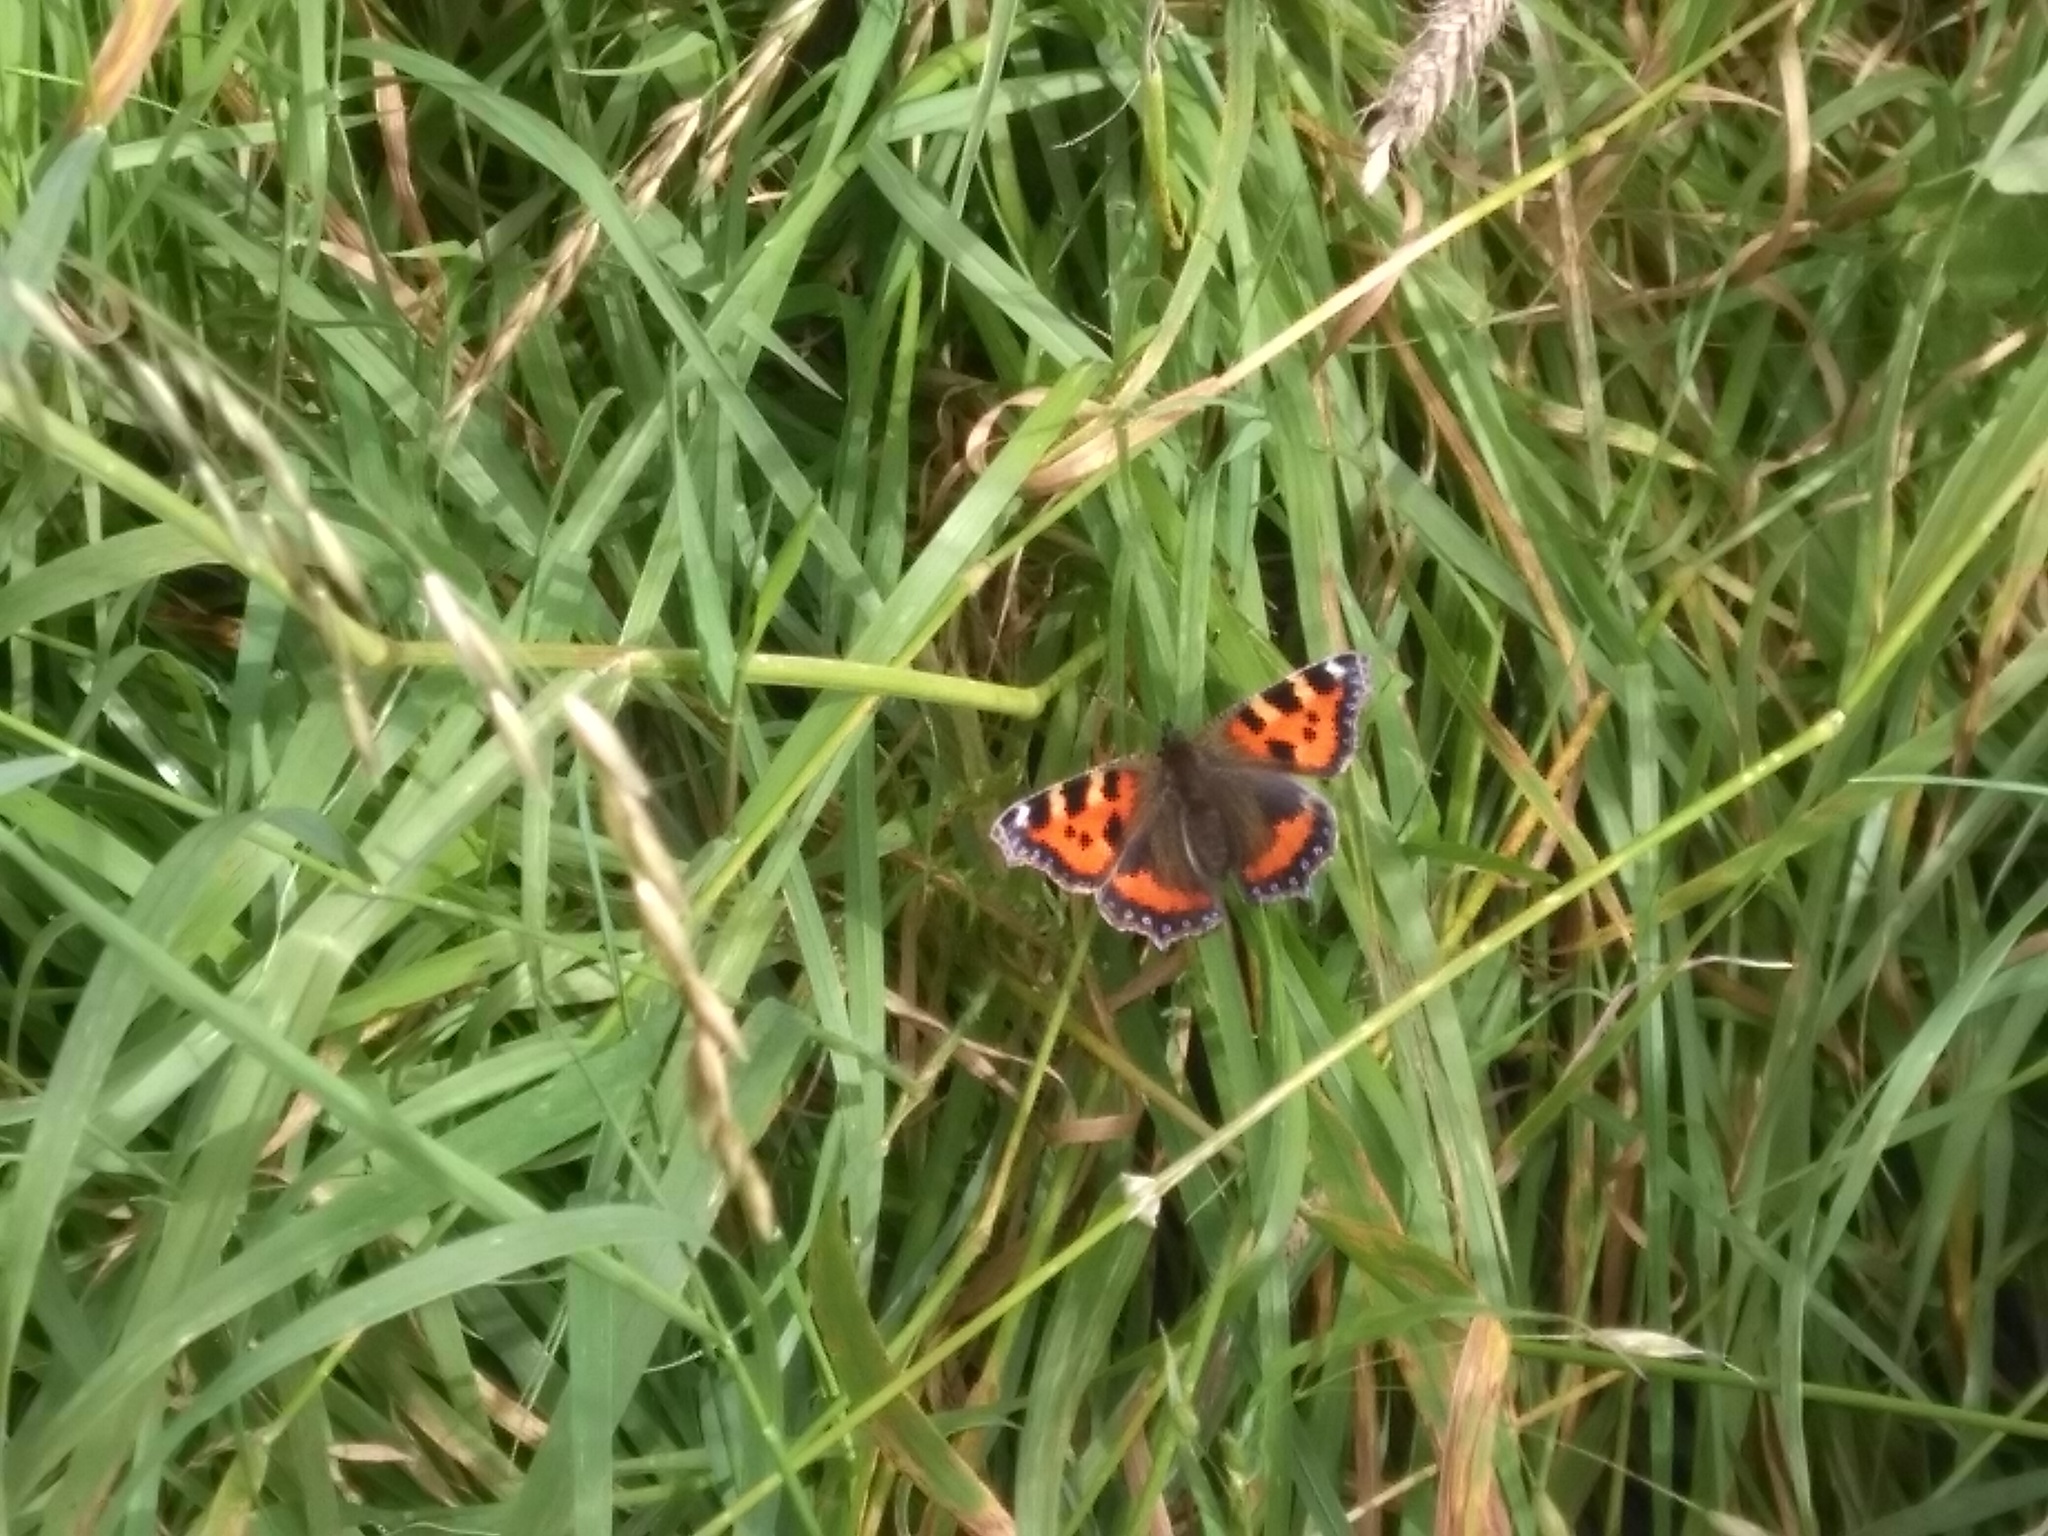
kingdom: Animalia
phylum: Arthropoda
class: Insecta
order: Lepidoptera
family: Nymphalidae
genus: Aglais
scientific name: Aglais urticae
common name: Small tortoiseshell
